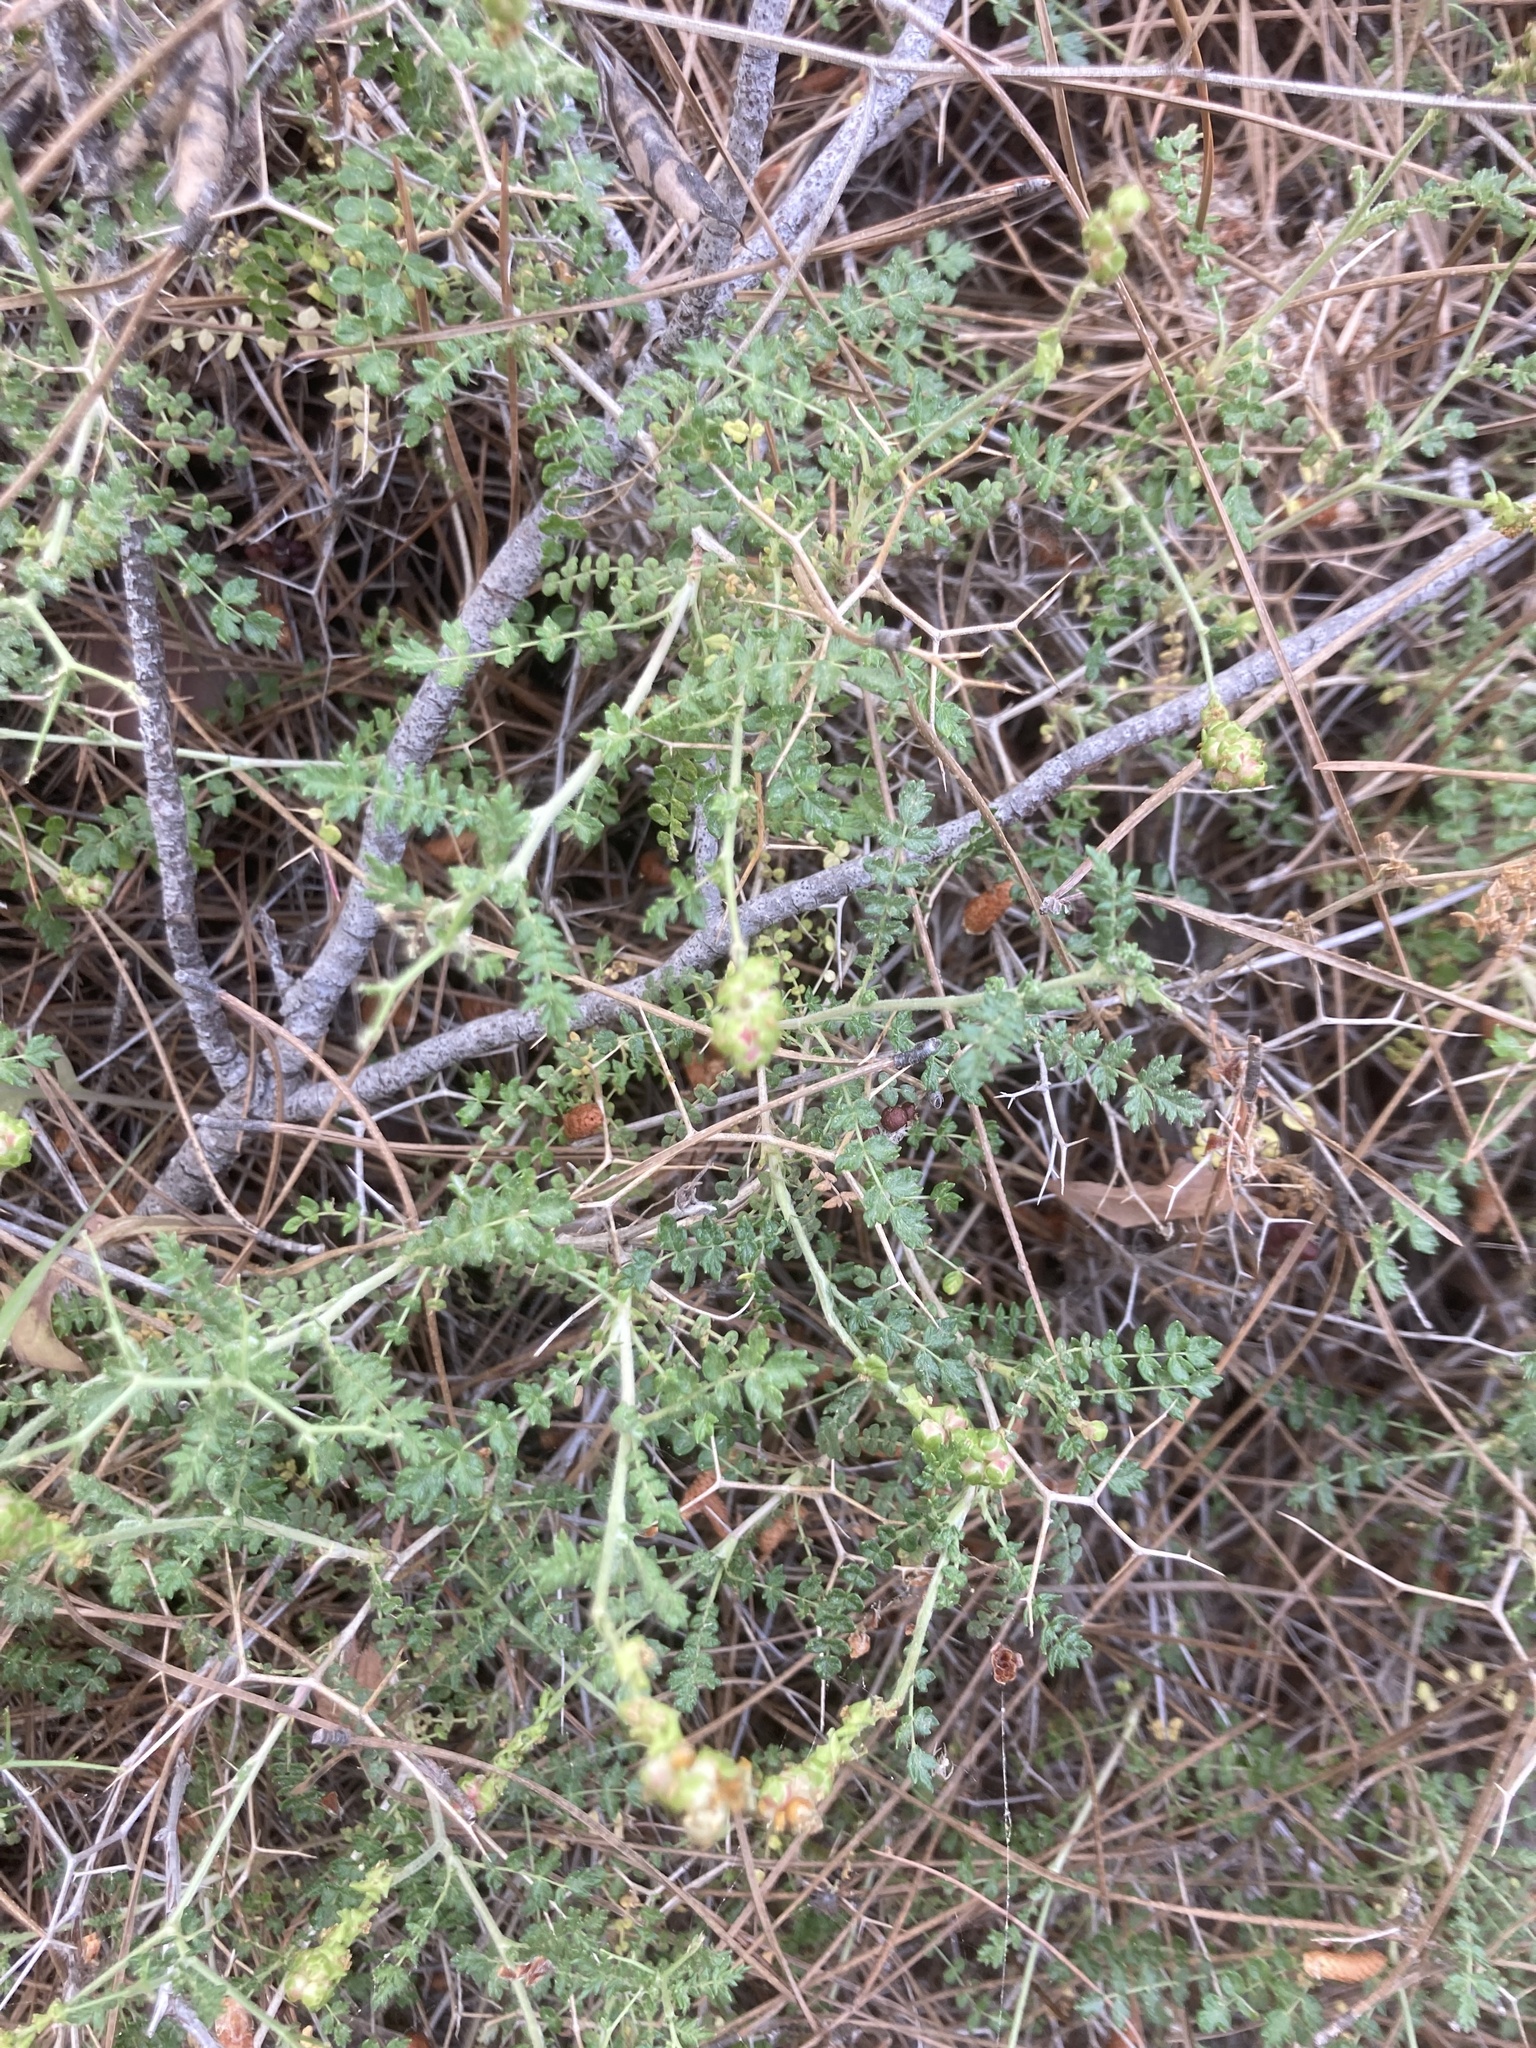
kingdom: Plantae
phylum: Tracheophyta
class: Magnoliopsida
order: Rosales
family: Rosaceae
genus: Sarcopoterium
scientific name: Sarcopoterium spinosum
